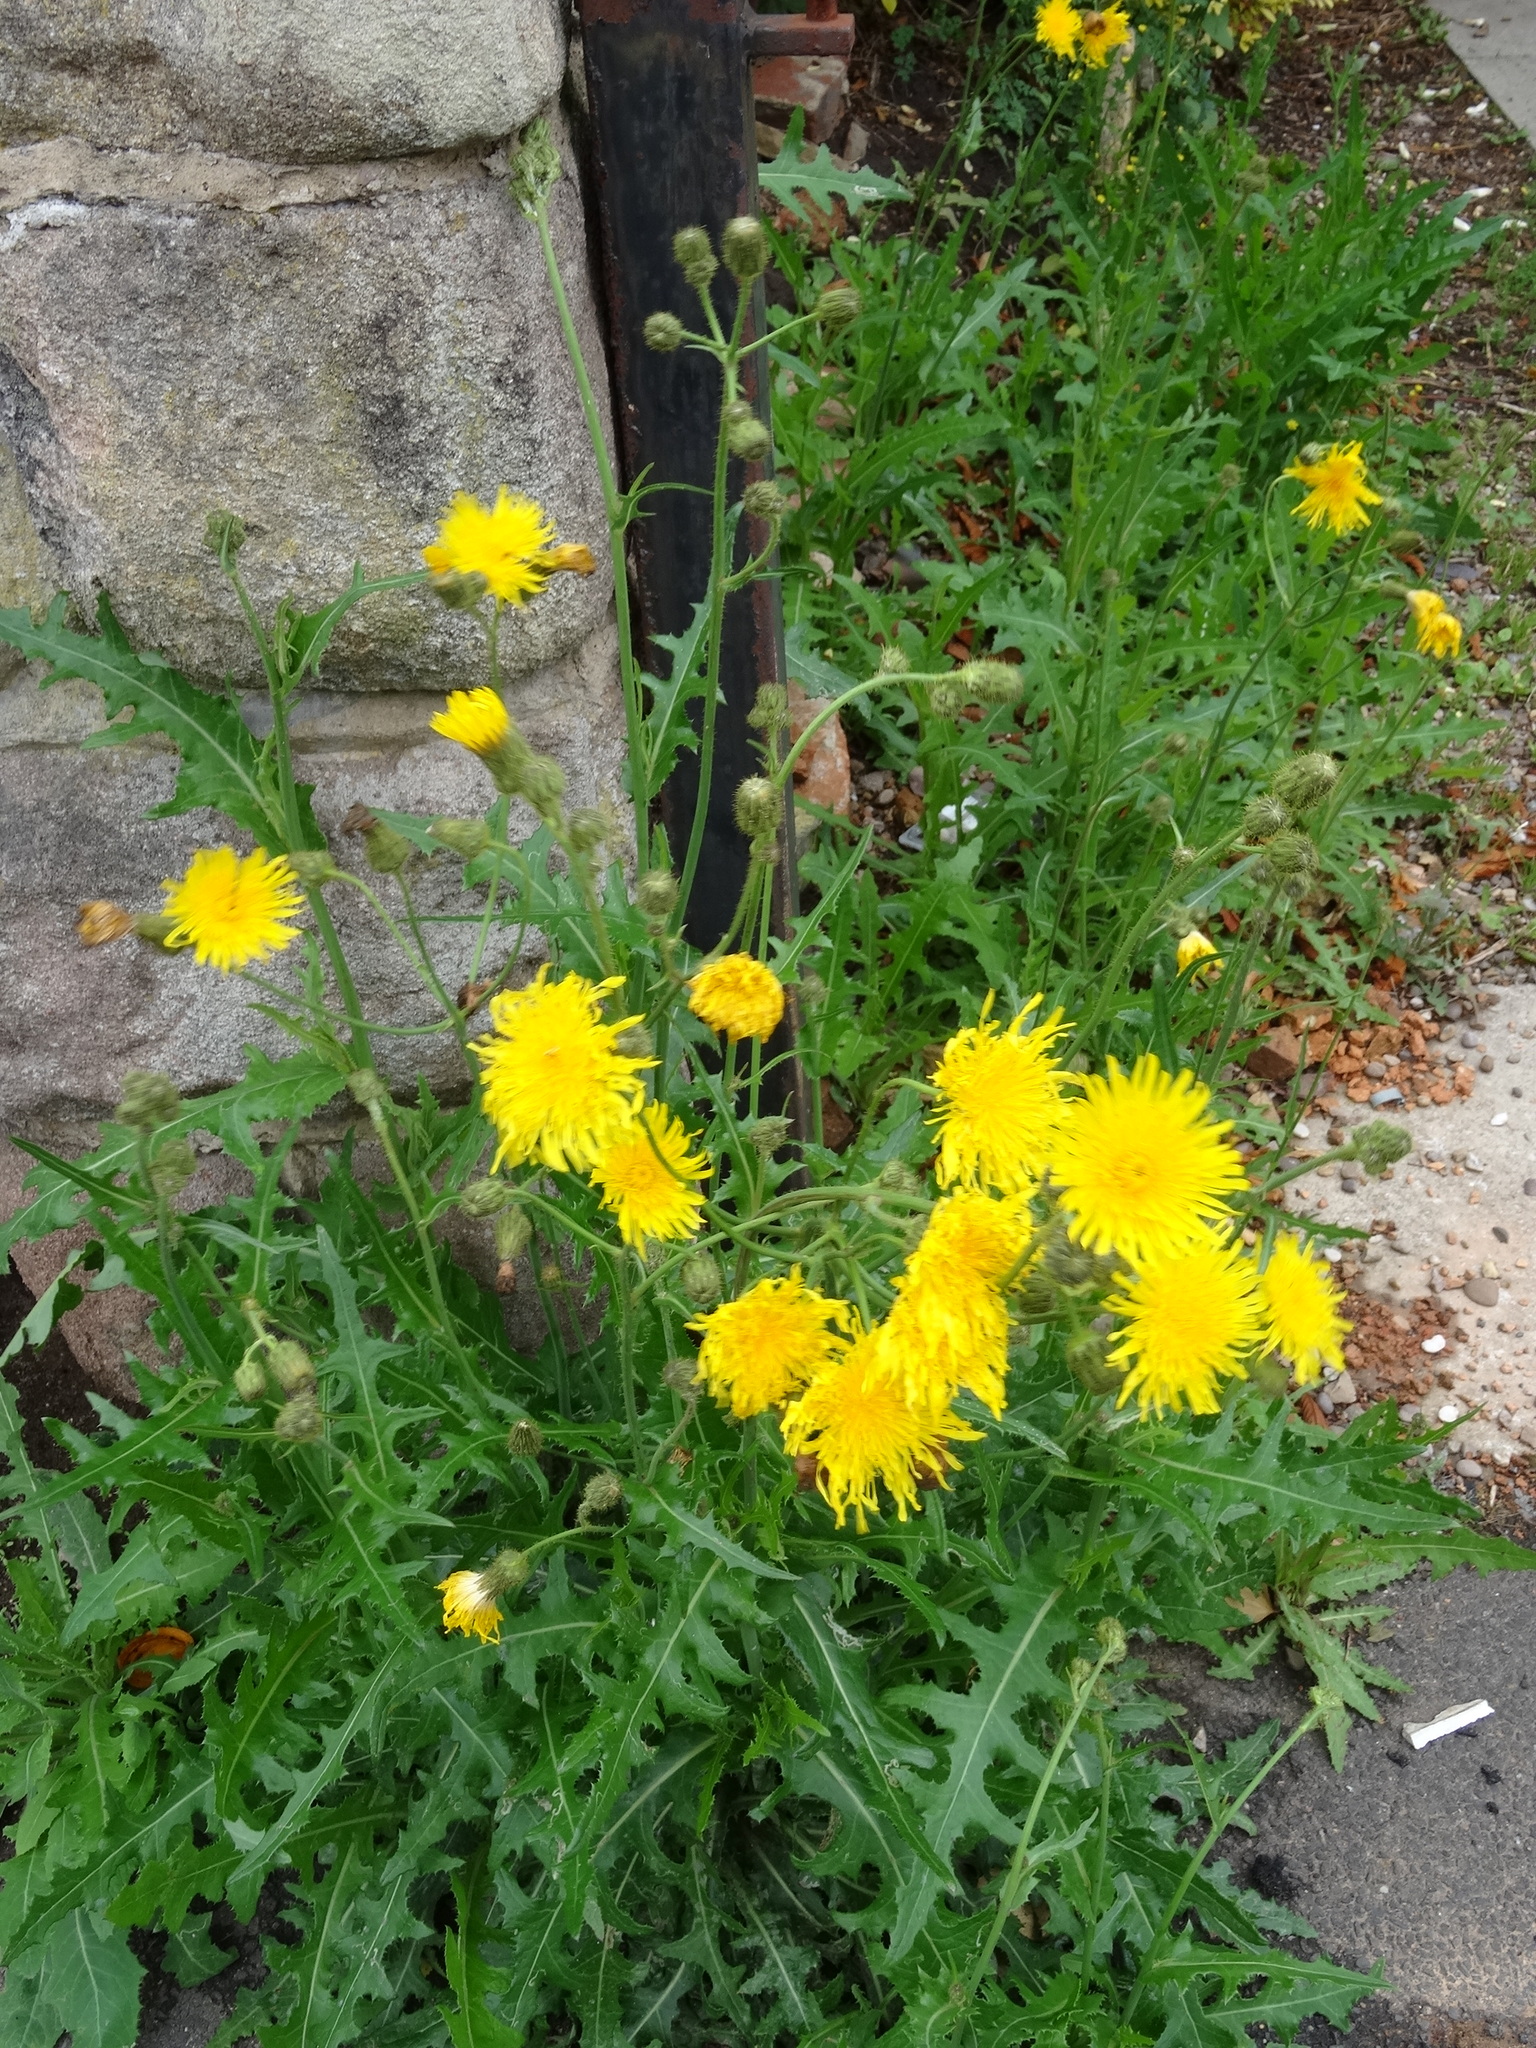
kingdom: Plantae
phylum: Tracheophyta
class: Magnoliopsida
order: Asterales
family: Asteraceae
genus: Sonchus
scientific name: Sonchus arvensis
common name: Perennial sow-thistle
